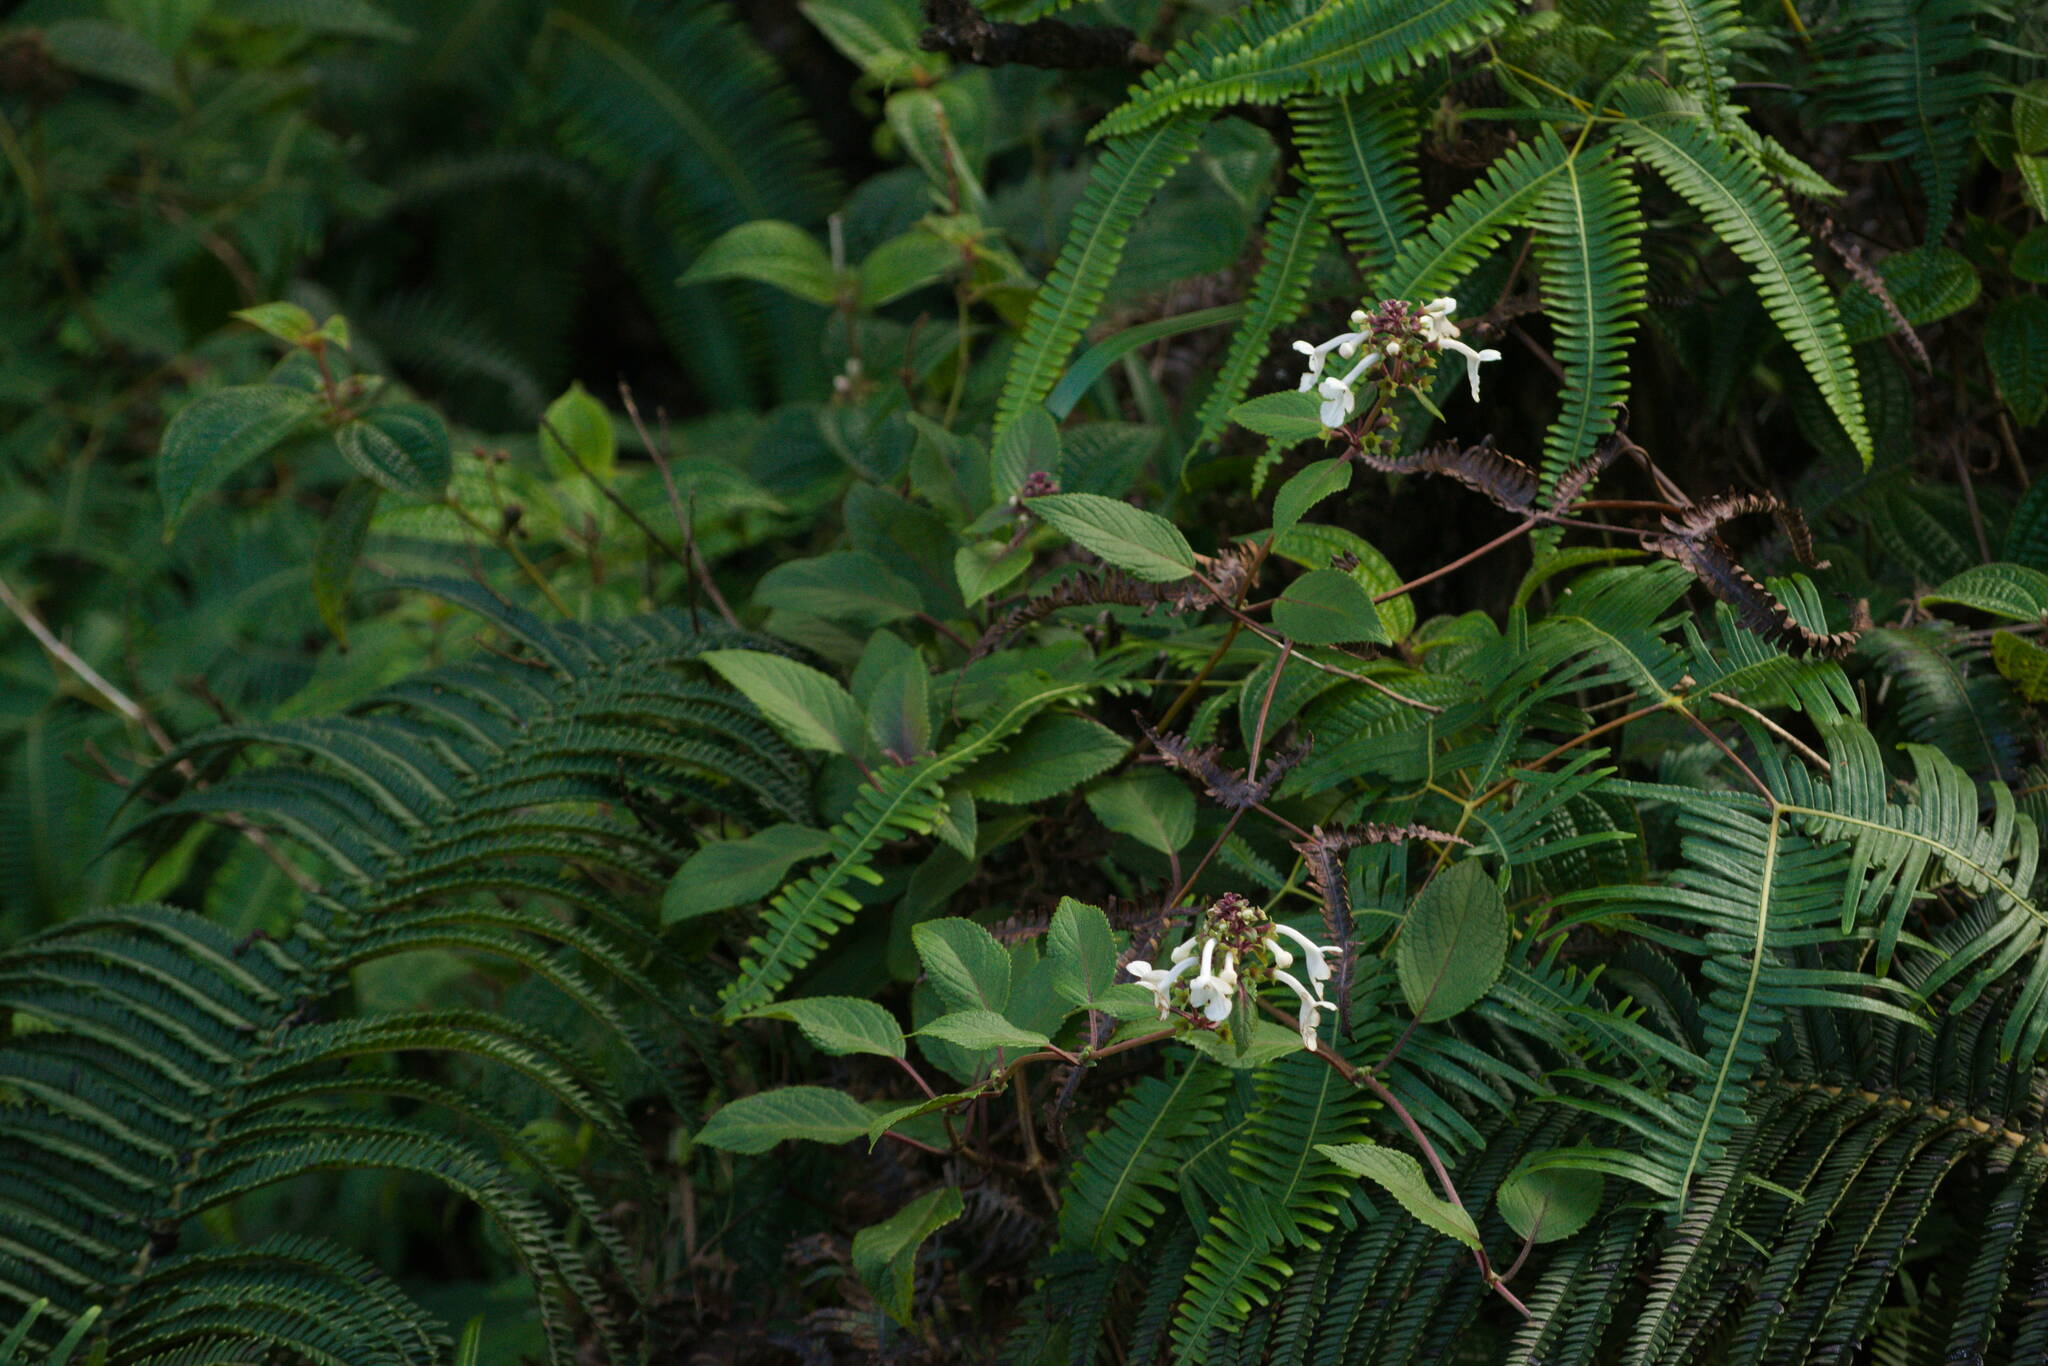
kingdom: Plantae
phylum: Tracheophyta
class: Magnoliopsida
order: Lamiales
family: Lamiaceae
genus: Phyllostegia
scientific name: Phyllostegia grandiflora
